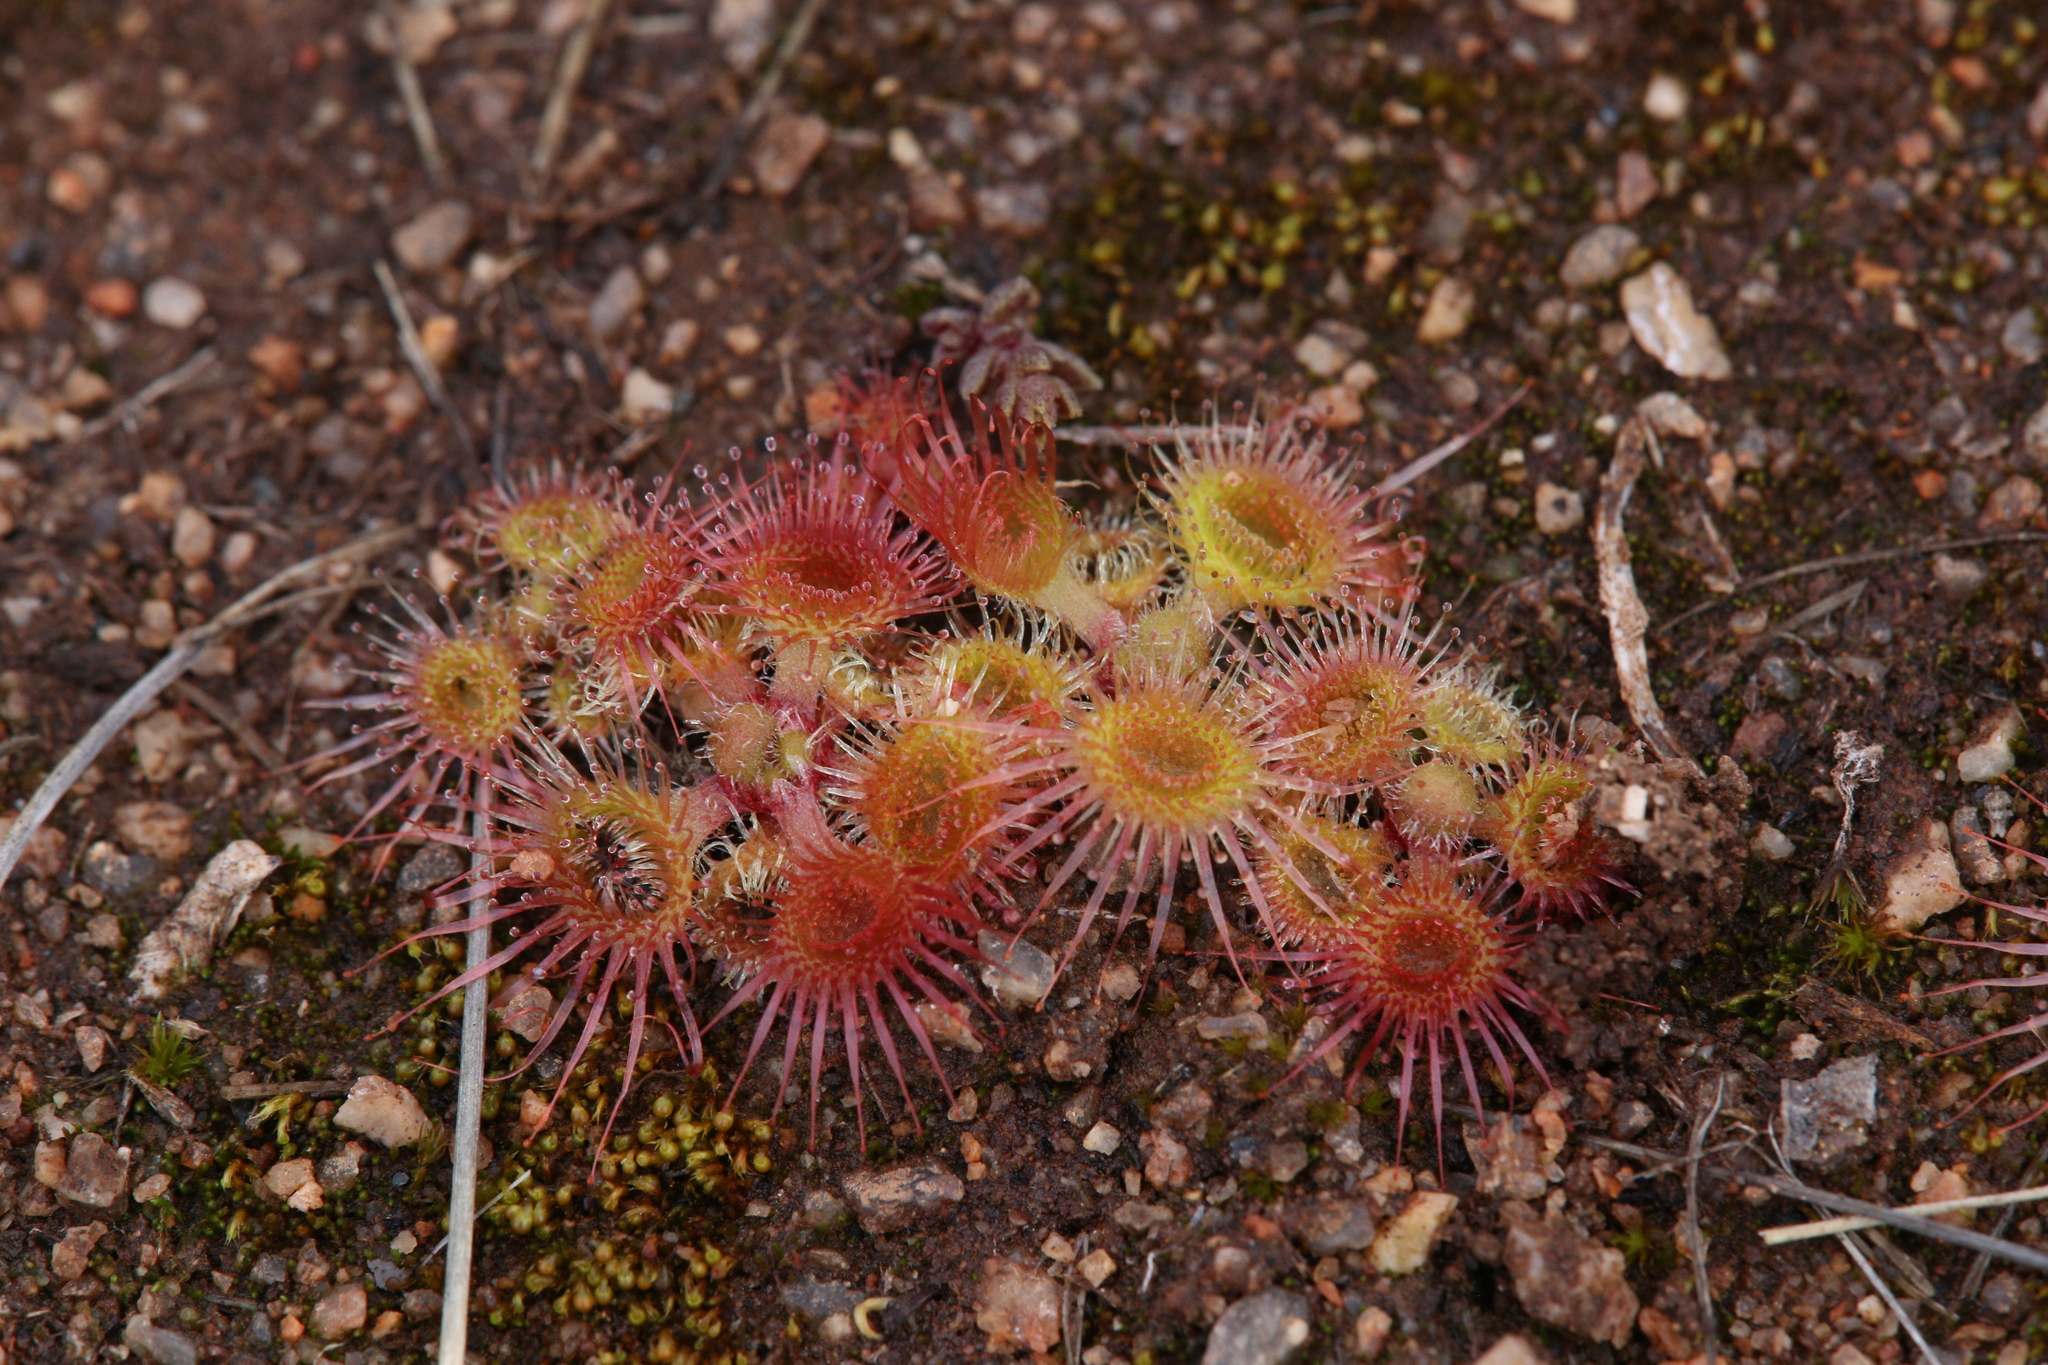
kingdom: Plantae
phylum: Tracheophyta
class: Magnoliopsida
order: Caryophyllales
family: Droseraceae
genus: Drosera
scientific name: Drosera glanduligera
